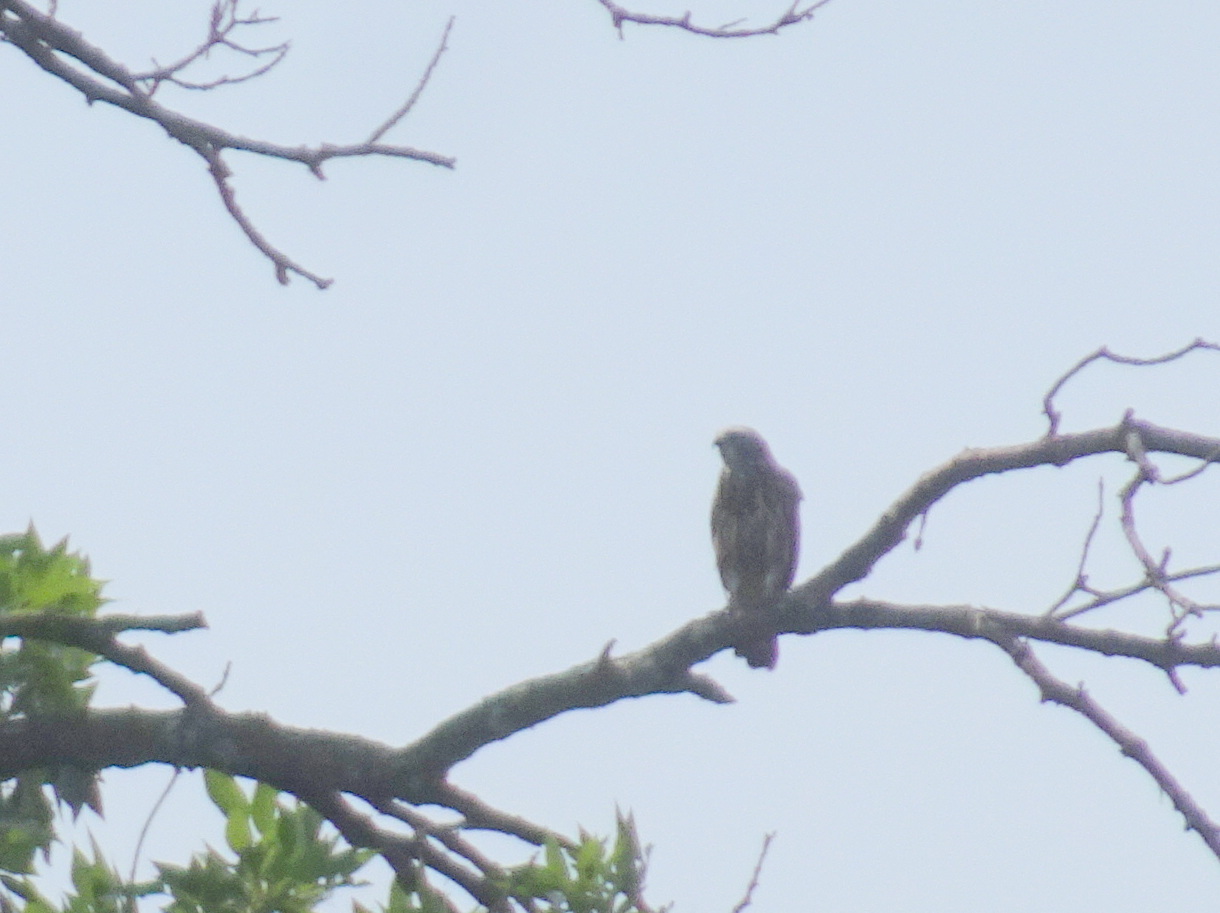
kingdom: Animalia
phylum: Chordata
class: Aves
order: Accipitriformes
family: Accipitridae
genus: Ictinia
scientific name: Ictinia mississippiensis
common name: Mississippi kite
